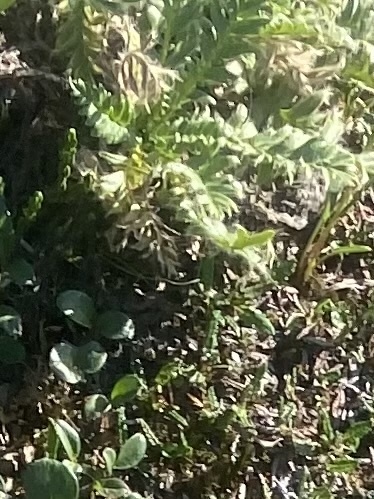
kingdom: Plantae
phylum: Tracheophyta
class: Magnoliopsida
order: Rosales
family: Rosaceae
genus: Geum
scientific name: Geum glaciale
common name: Glacier avens
